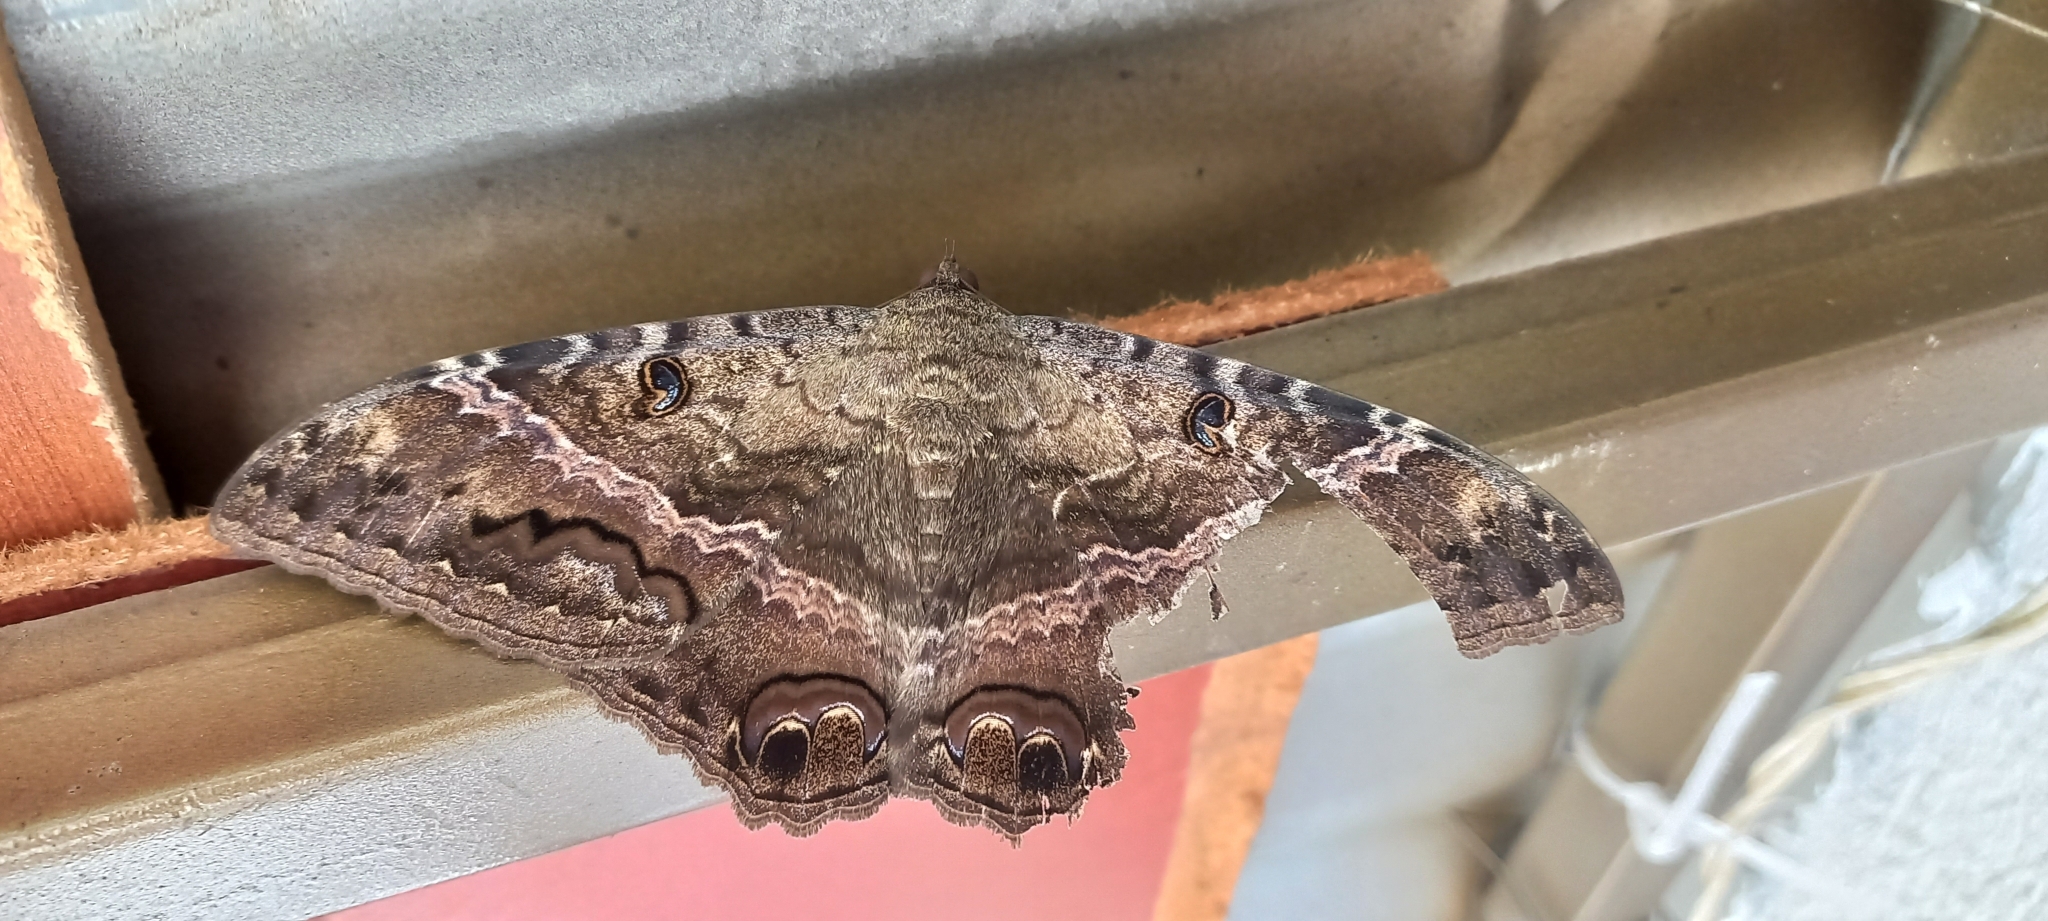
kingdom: Animalia
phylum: Arthropoda
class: Insecta
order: Lepidoptera
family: Erebidae
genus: Ascalapha
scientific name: Ascalapha odorata
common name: Black witch
